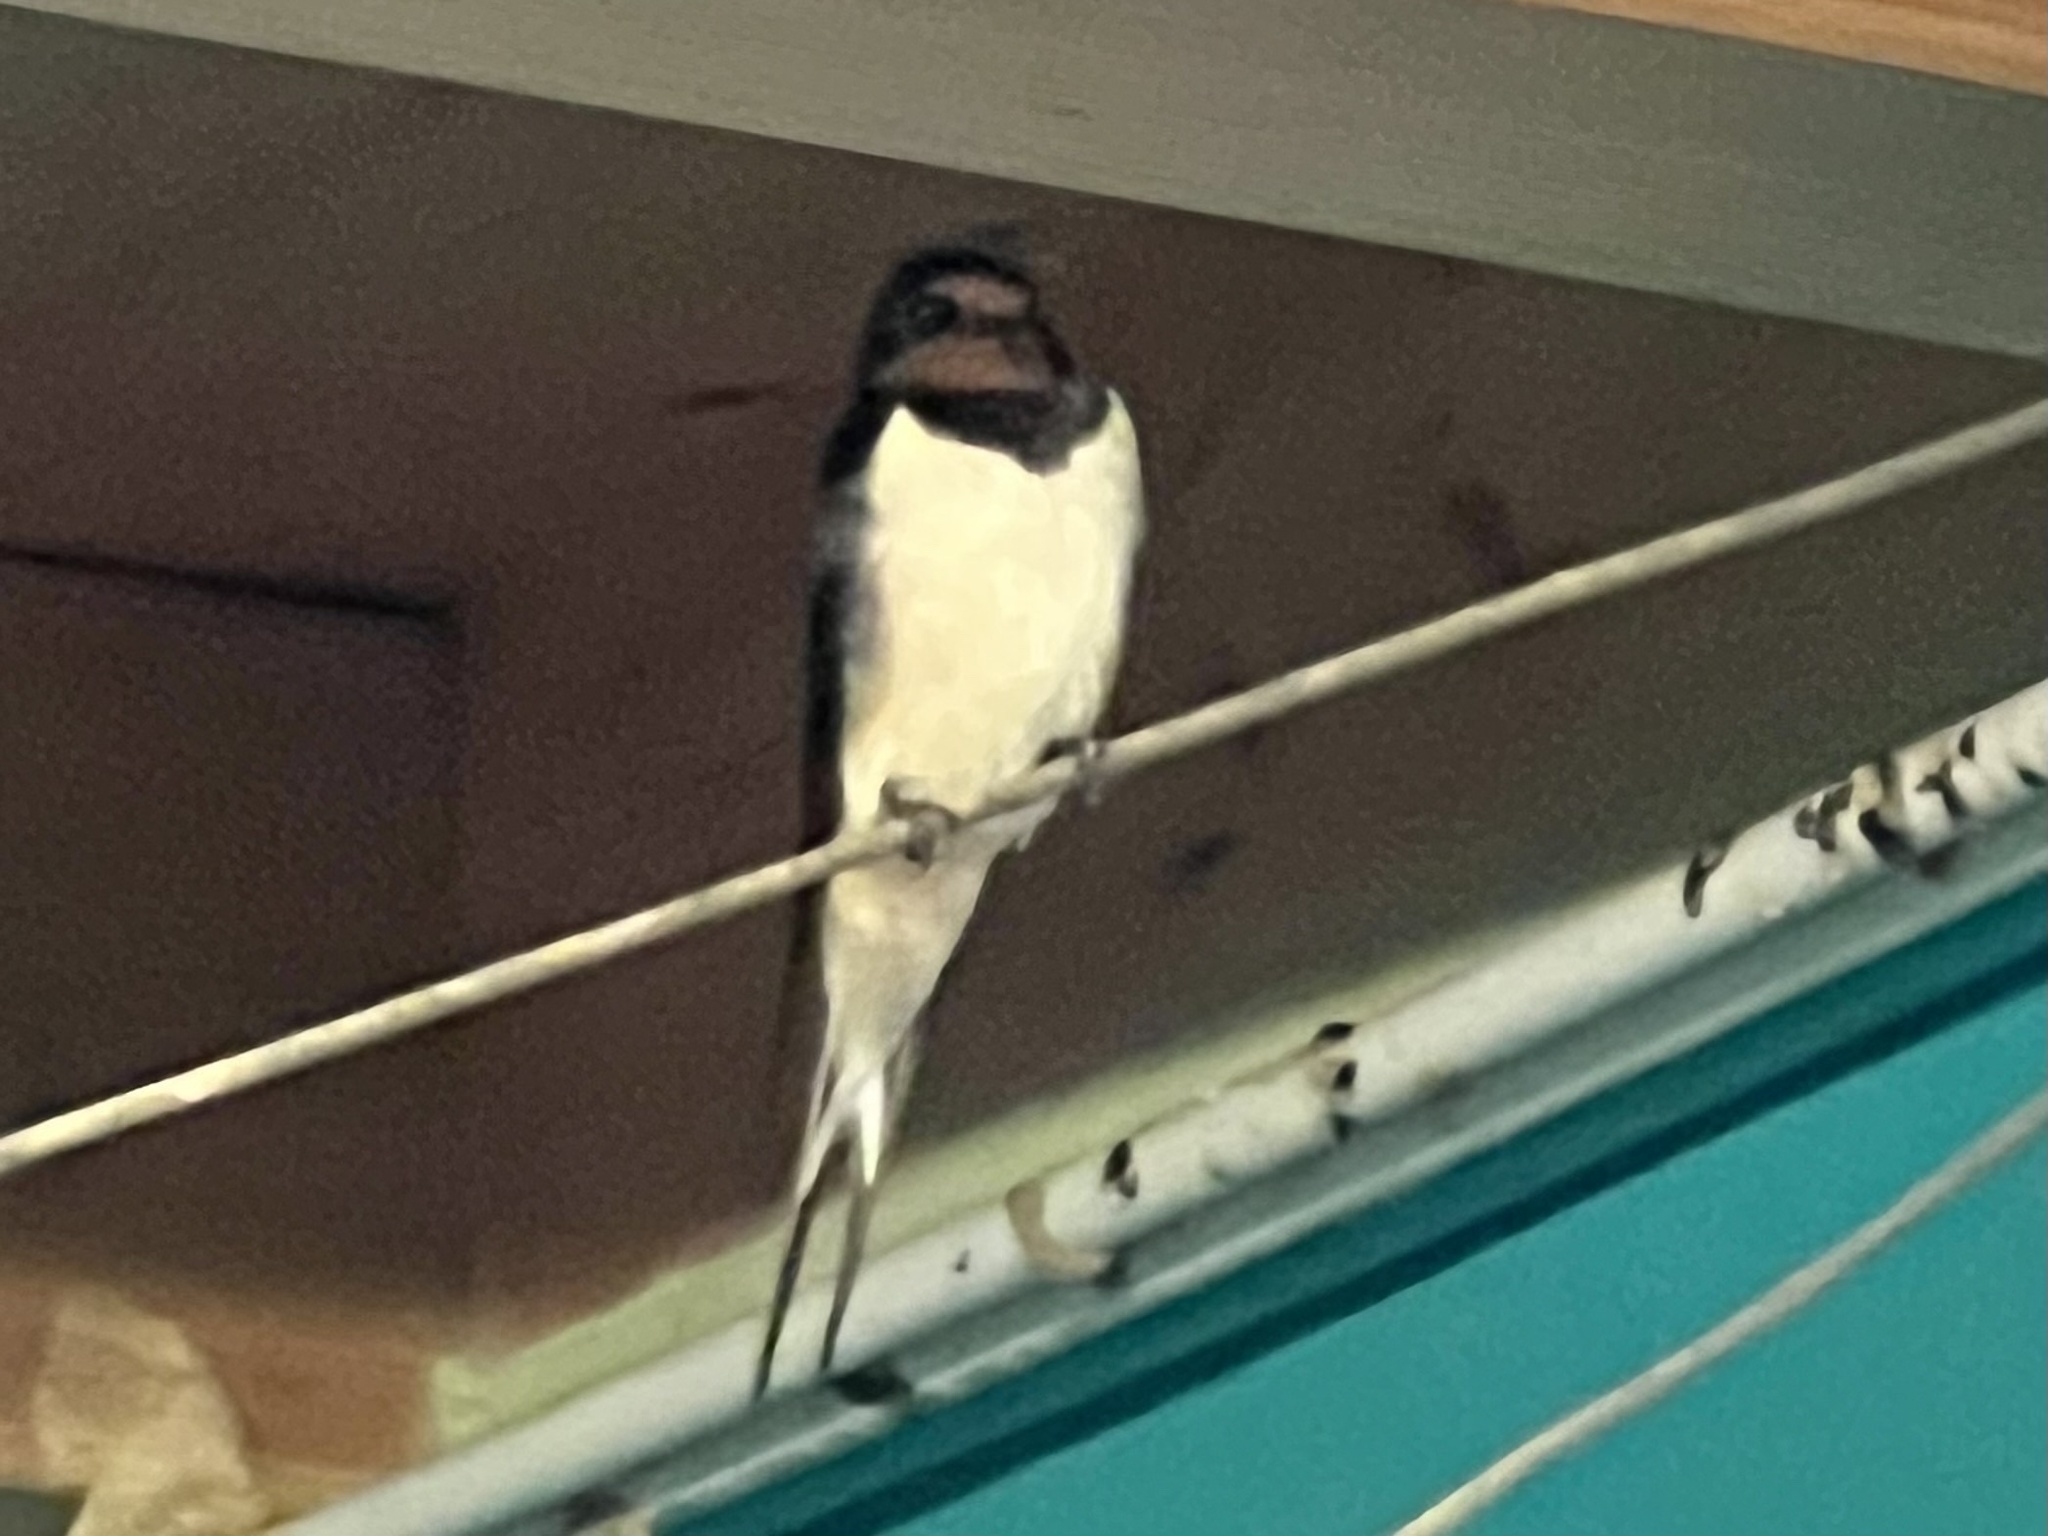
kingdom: Animalia
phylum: Chordata
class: Aves
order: Passeriformes
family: Hirundinidae
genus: Hirundo
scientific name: Hirundo rustica
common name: Barn swallow
